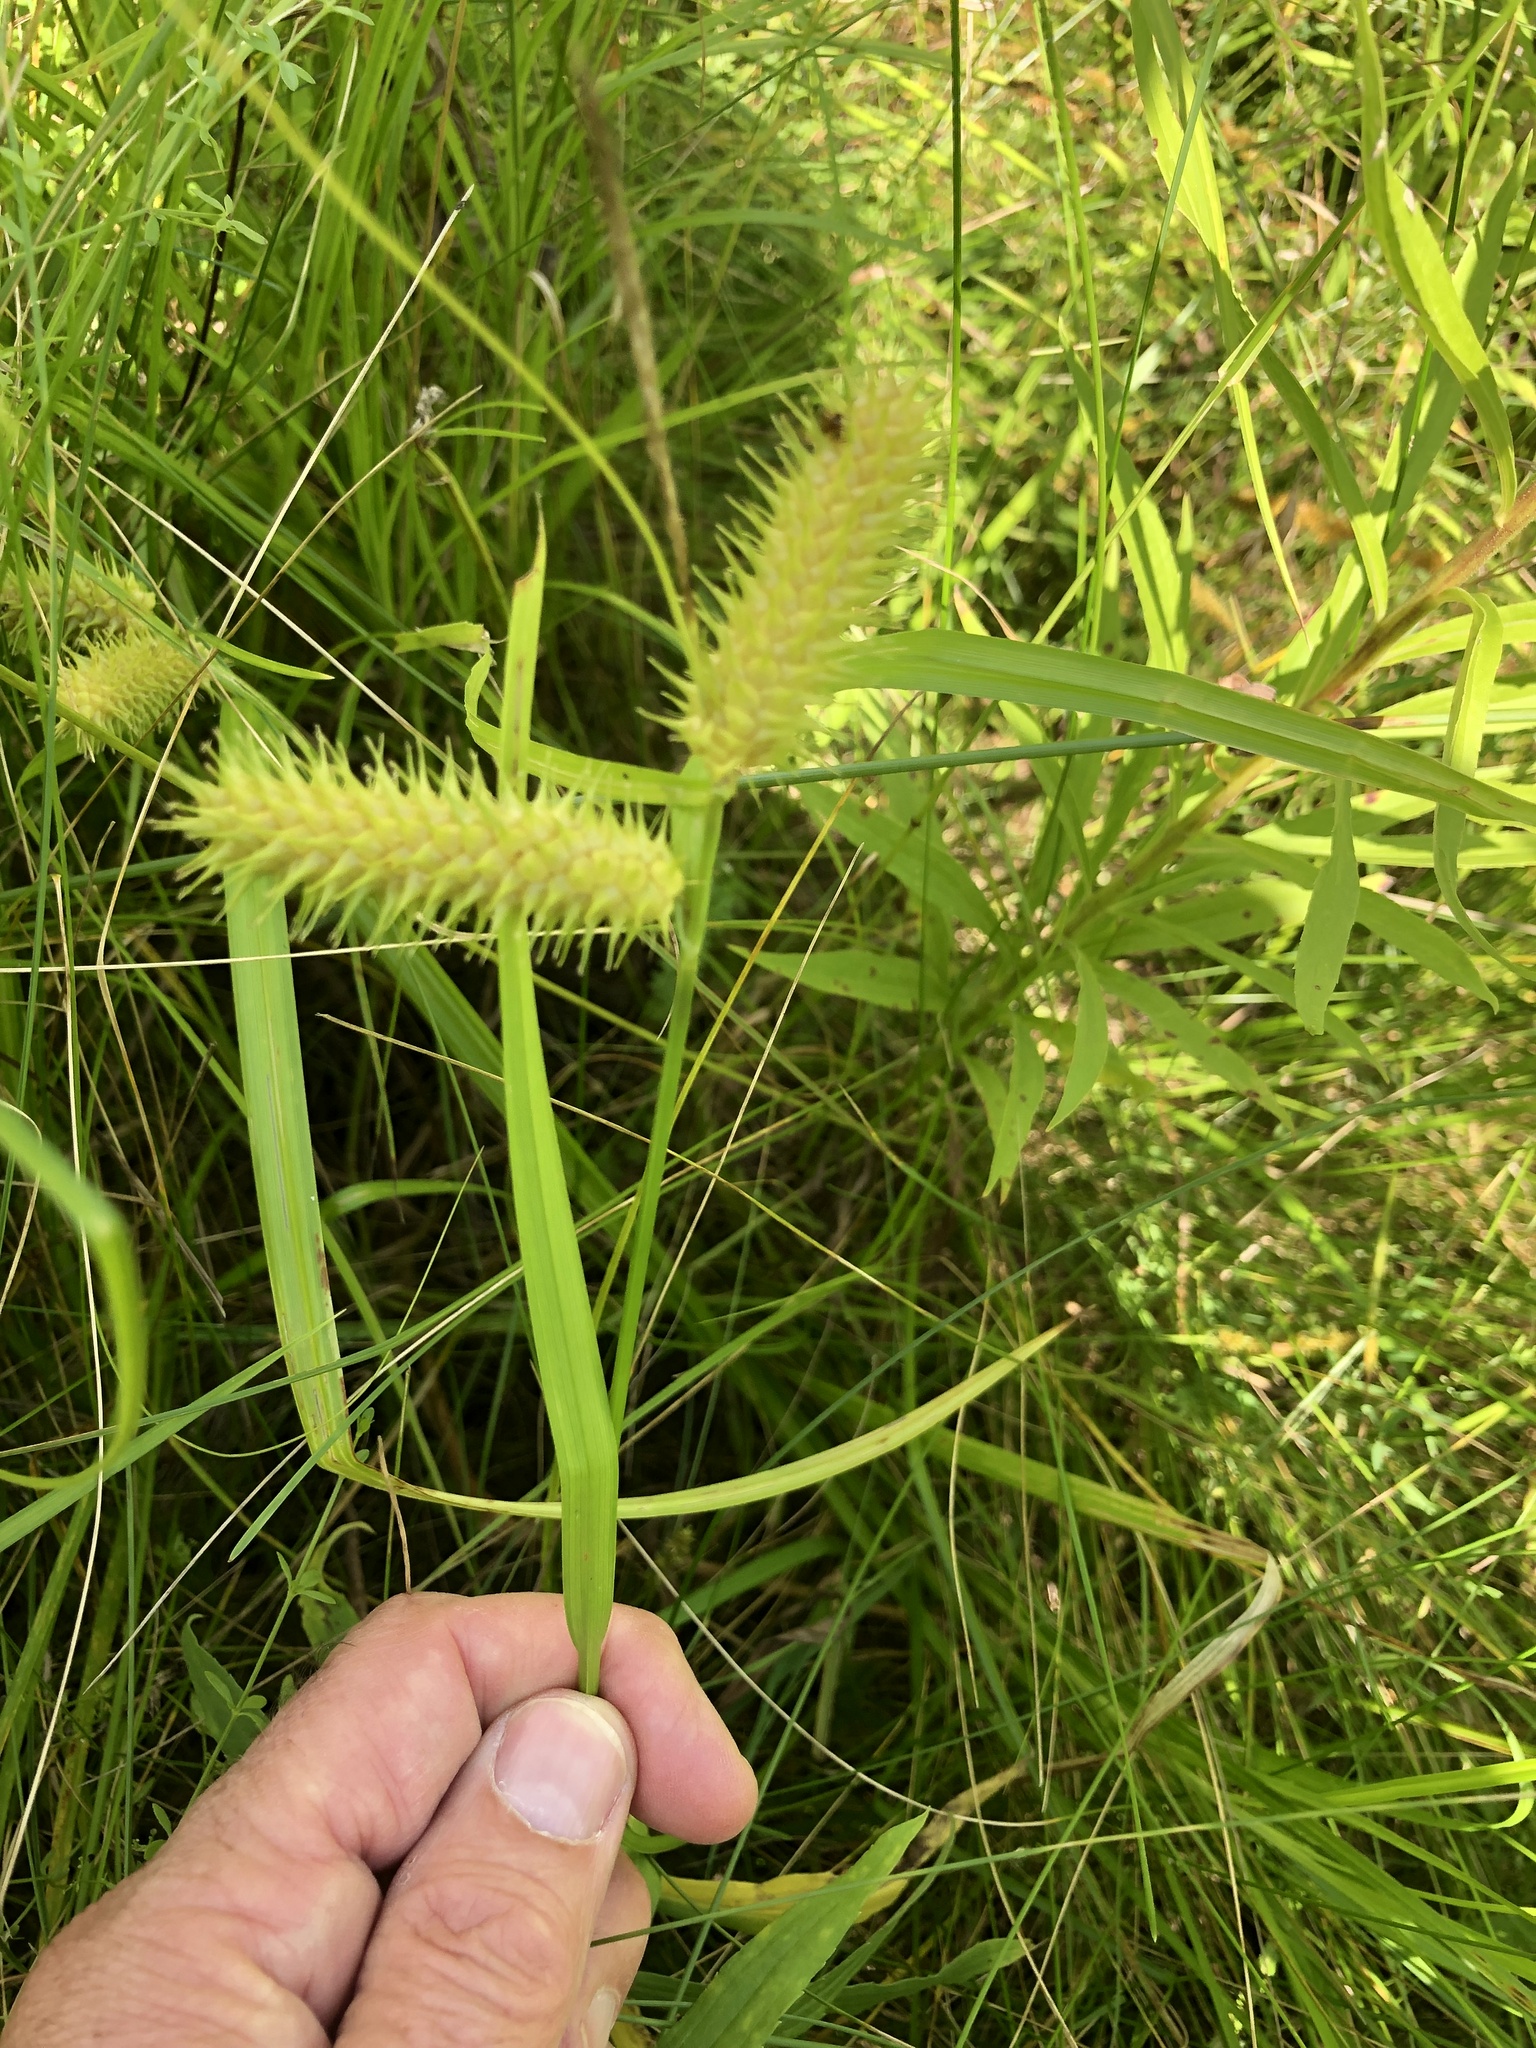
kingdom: Plantae
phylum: Tracheophyta
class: Liliopsida
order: Poales
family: Cyperaceae
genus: Carex
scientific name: Carex lurida
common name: Sallow sedge
